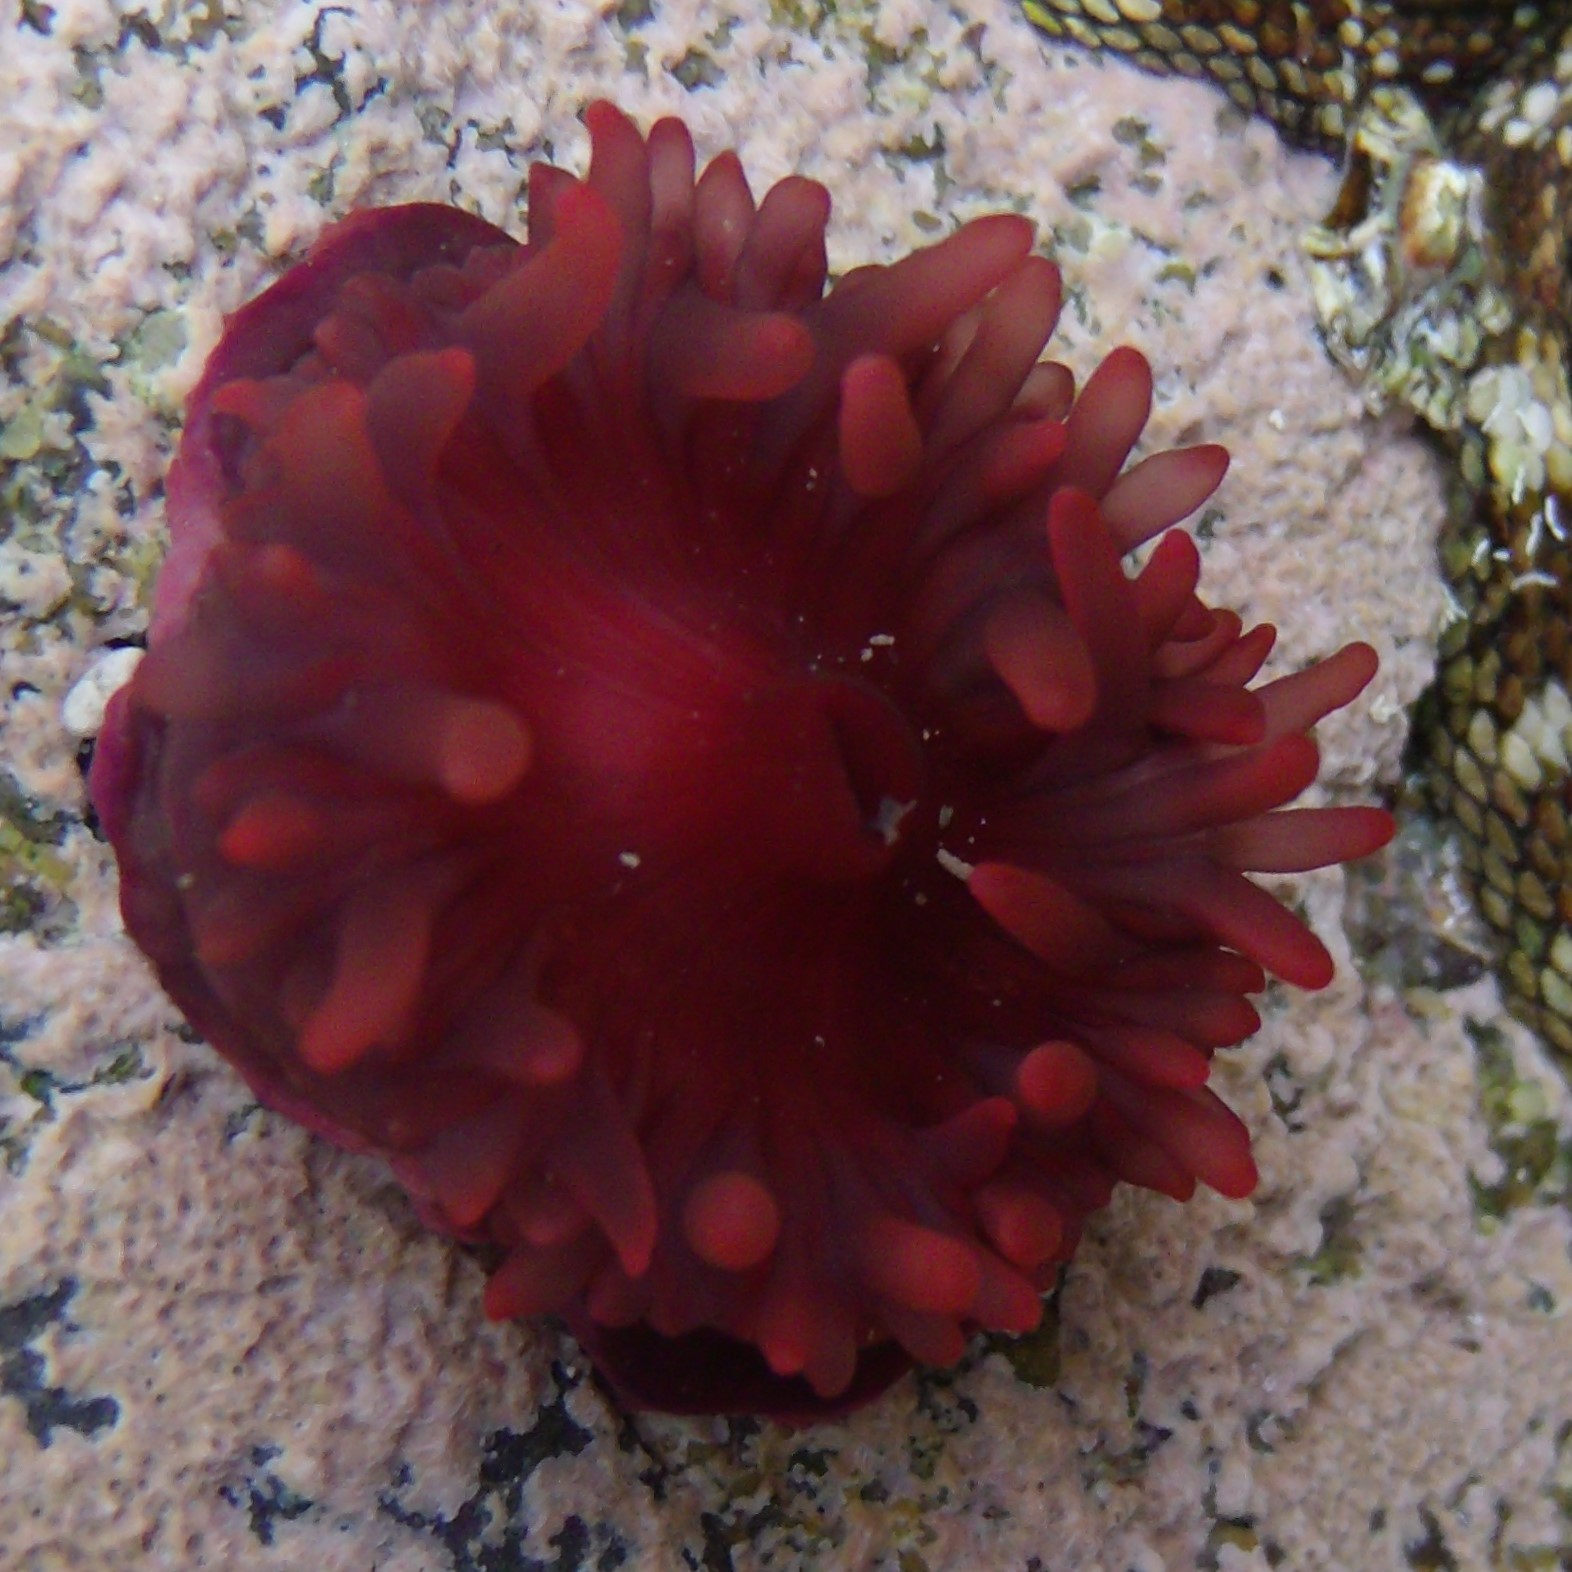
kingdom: Animalia
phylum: Cnidaria
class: Anthozoa
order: Actiniaria
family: Actiniidae
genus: Actinia
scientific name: Actinia tenebrosa
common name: Waratah anemone
